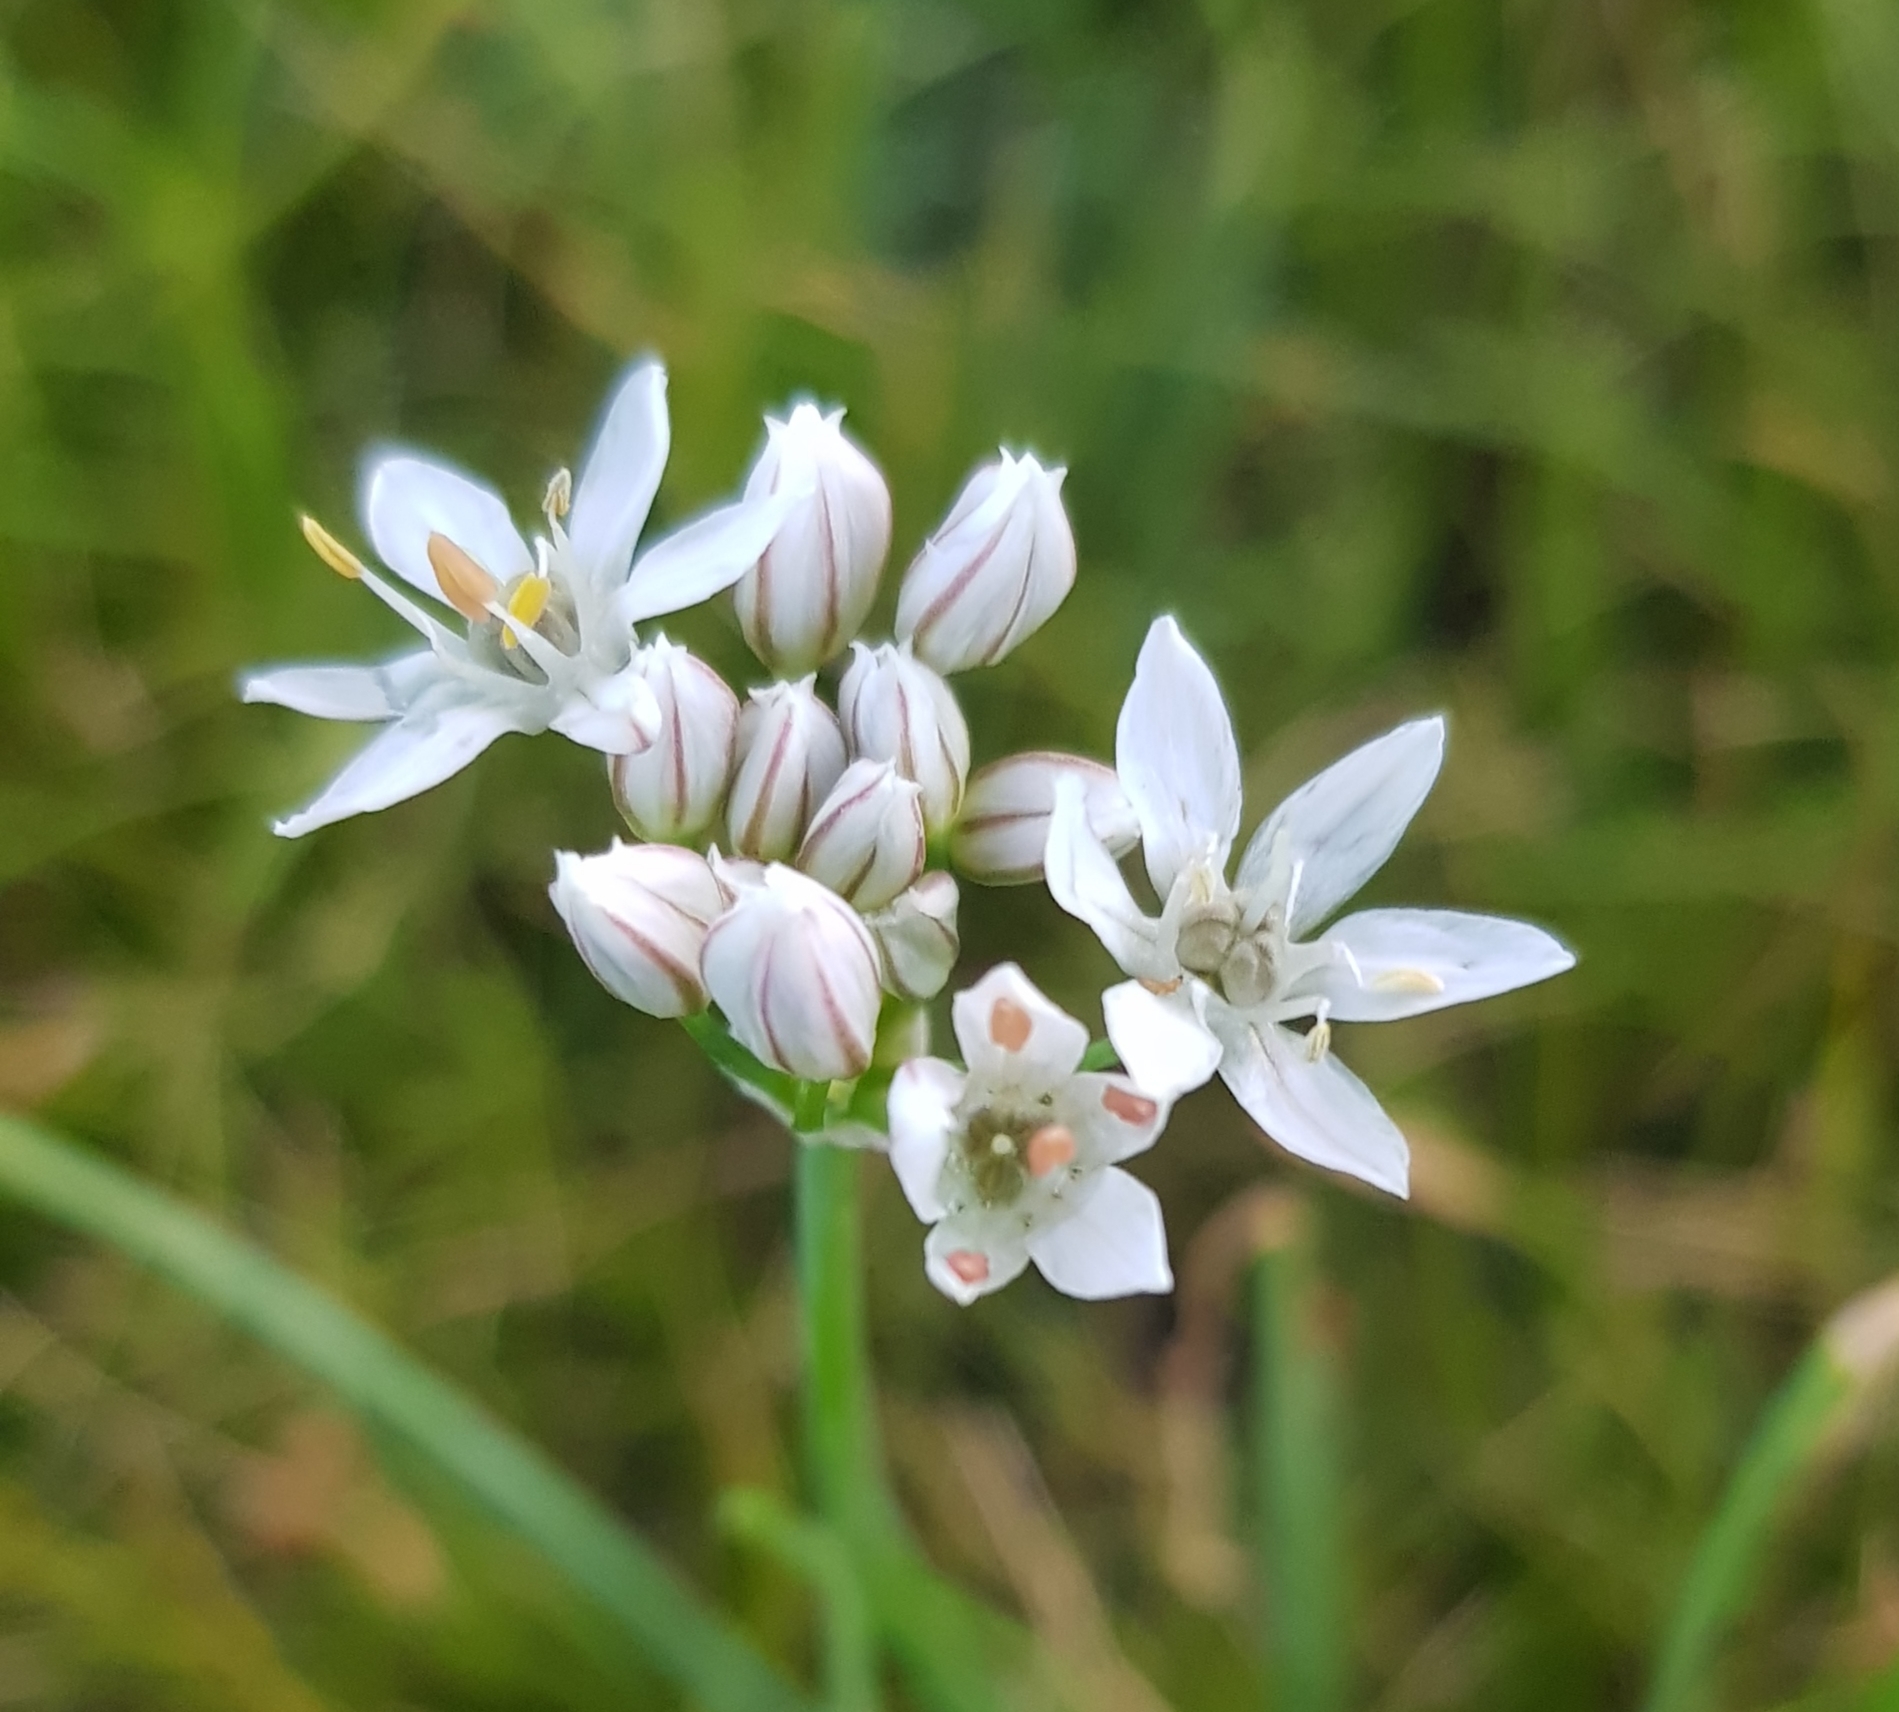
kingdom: Plantae
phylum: Tracheophyta
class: Liliopsida
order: Asparagales
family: Amaryllidaceae
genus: Allium
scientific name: Allium ramosum
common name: Fragrant garlic
